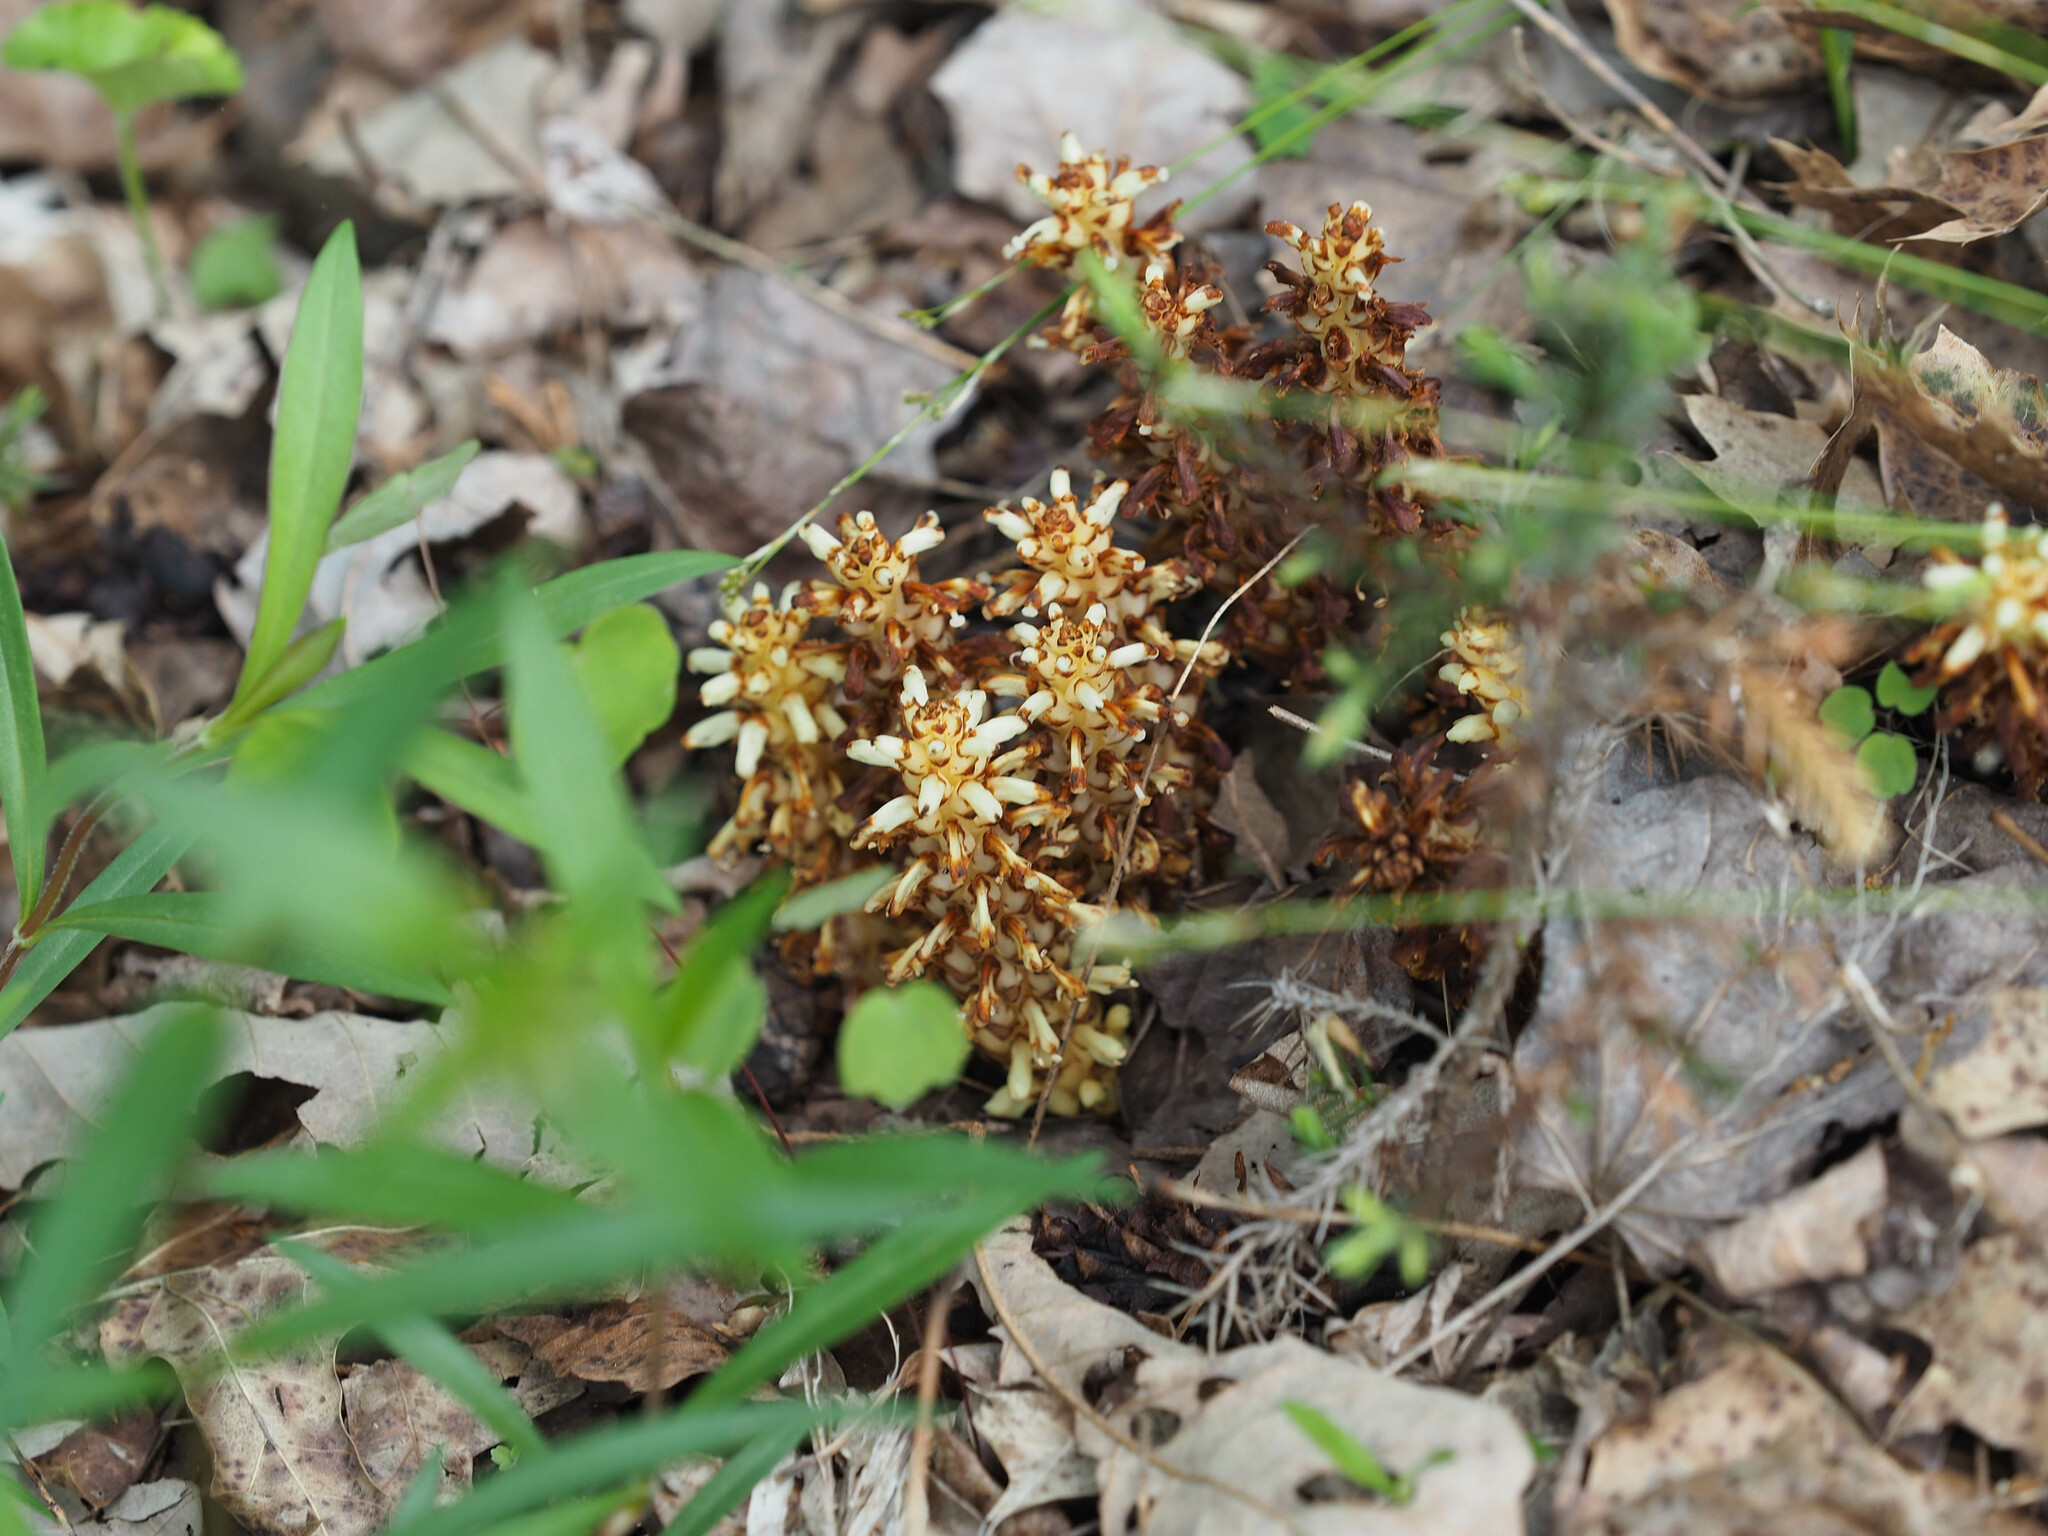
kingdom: Plantae
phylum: Tracheophyta
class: Magnoliopsida
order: Lamiales
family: Orobanchaceae
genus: Conopholis
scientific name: Conopholis americana
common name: American cancer-root
